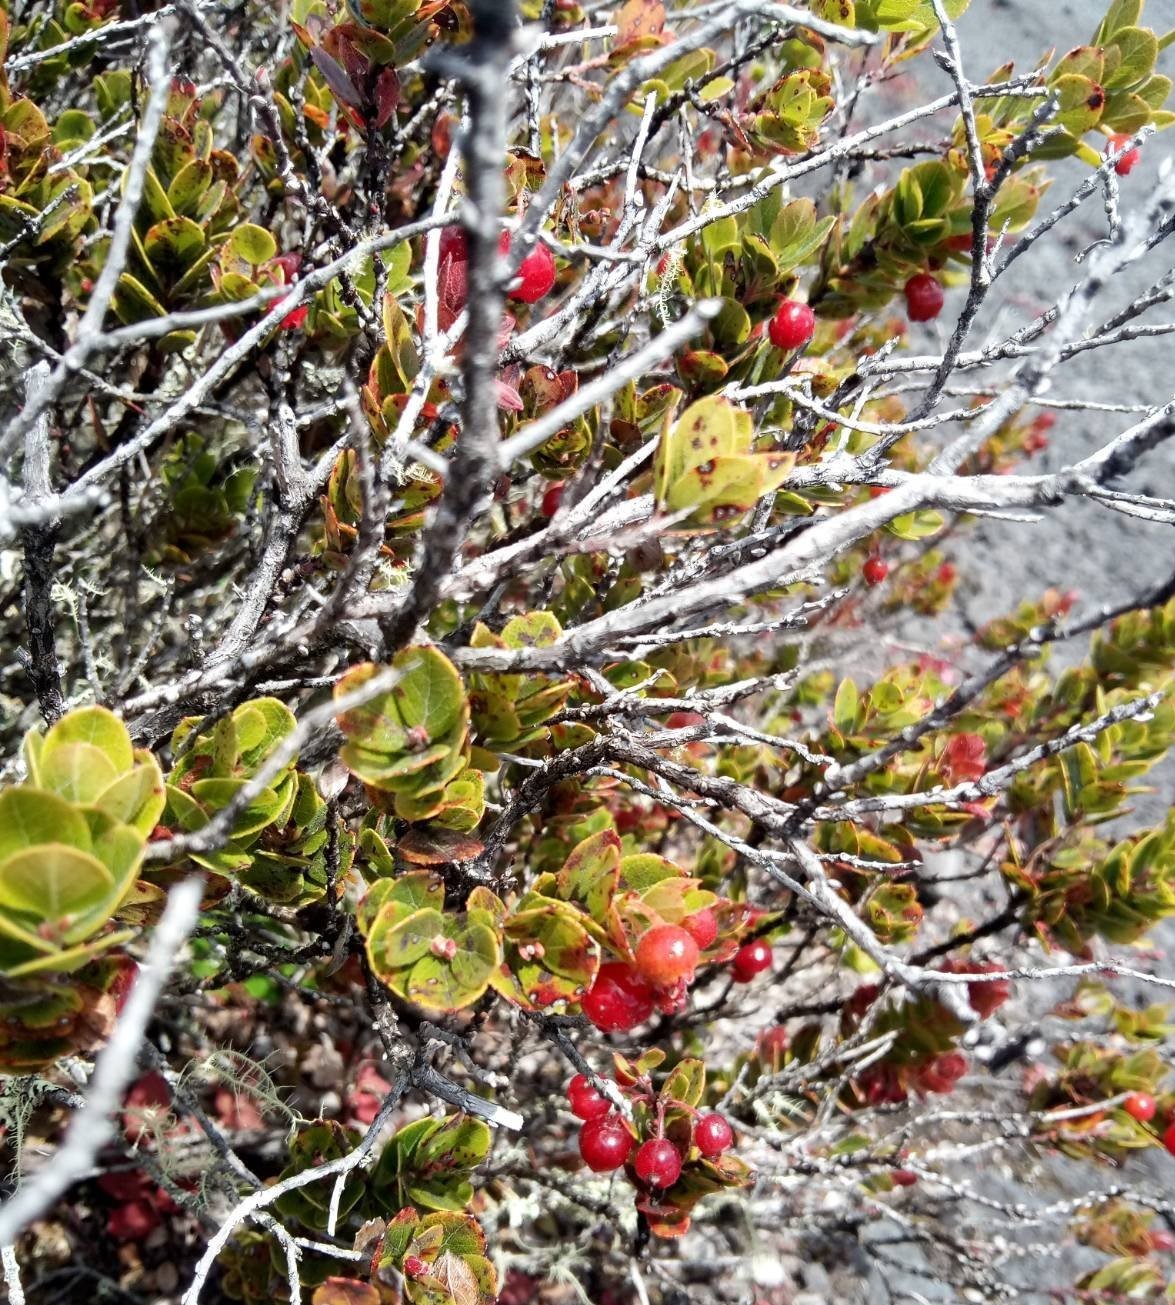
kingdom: Plantae
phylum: Tracheophyta
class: Magnoliopsida
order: Ericales
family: Ericaceae
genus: Vaccinium
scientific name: Vaccinium reticulatum
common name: Ohelo
